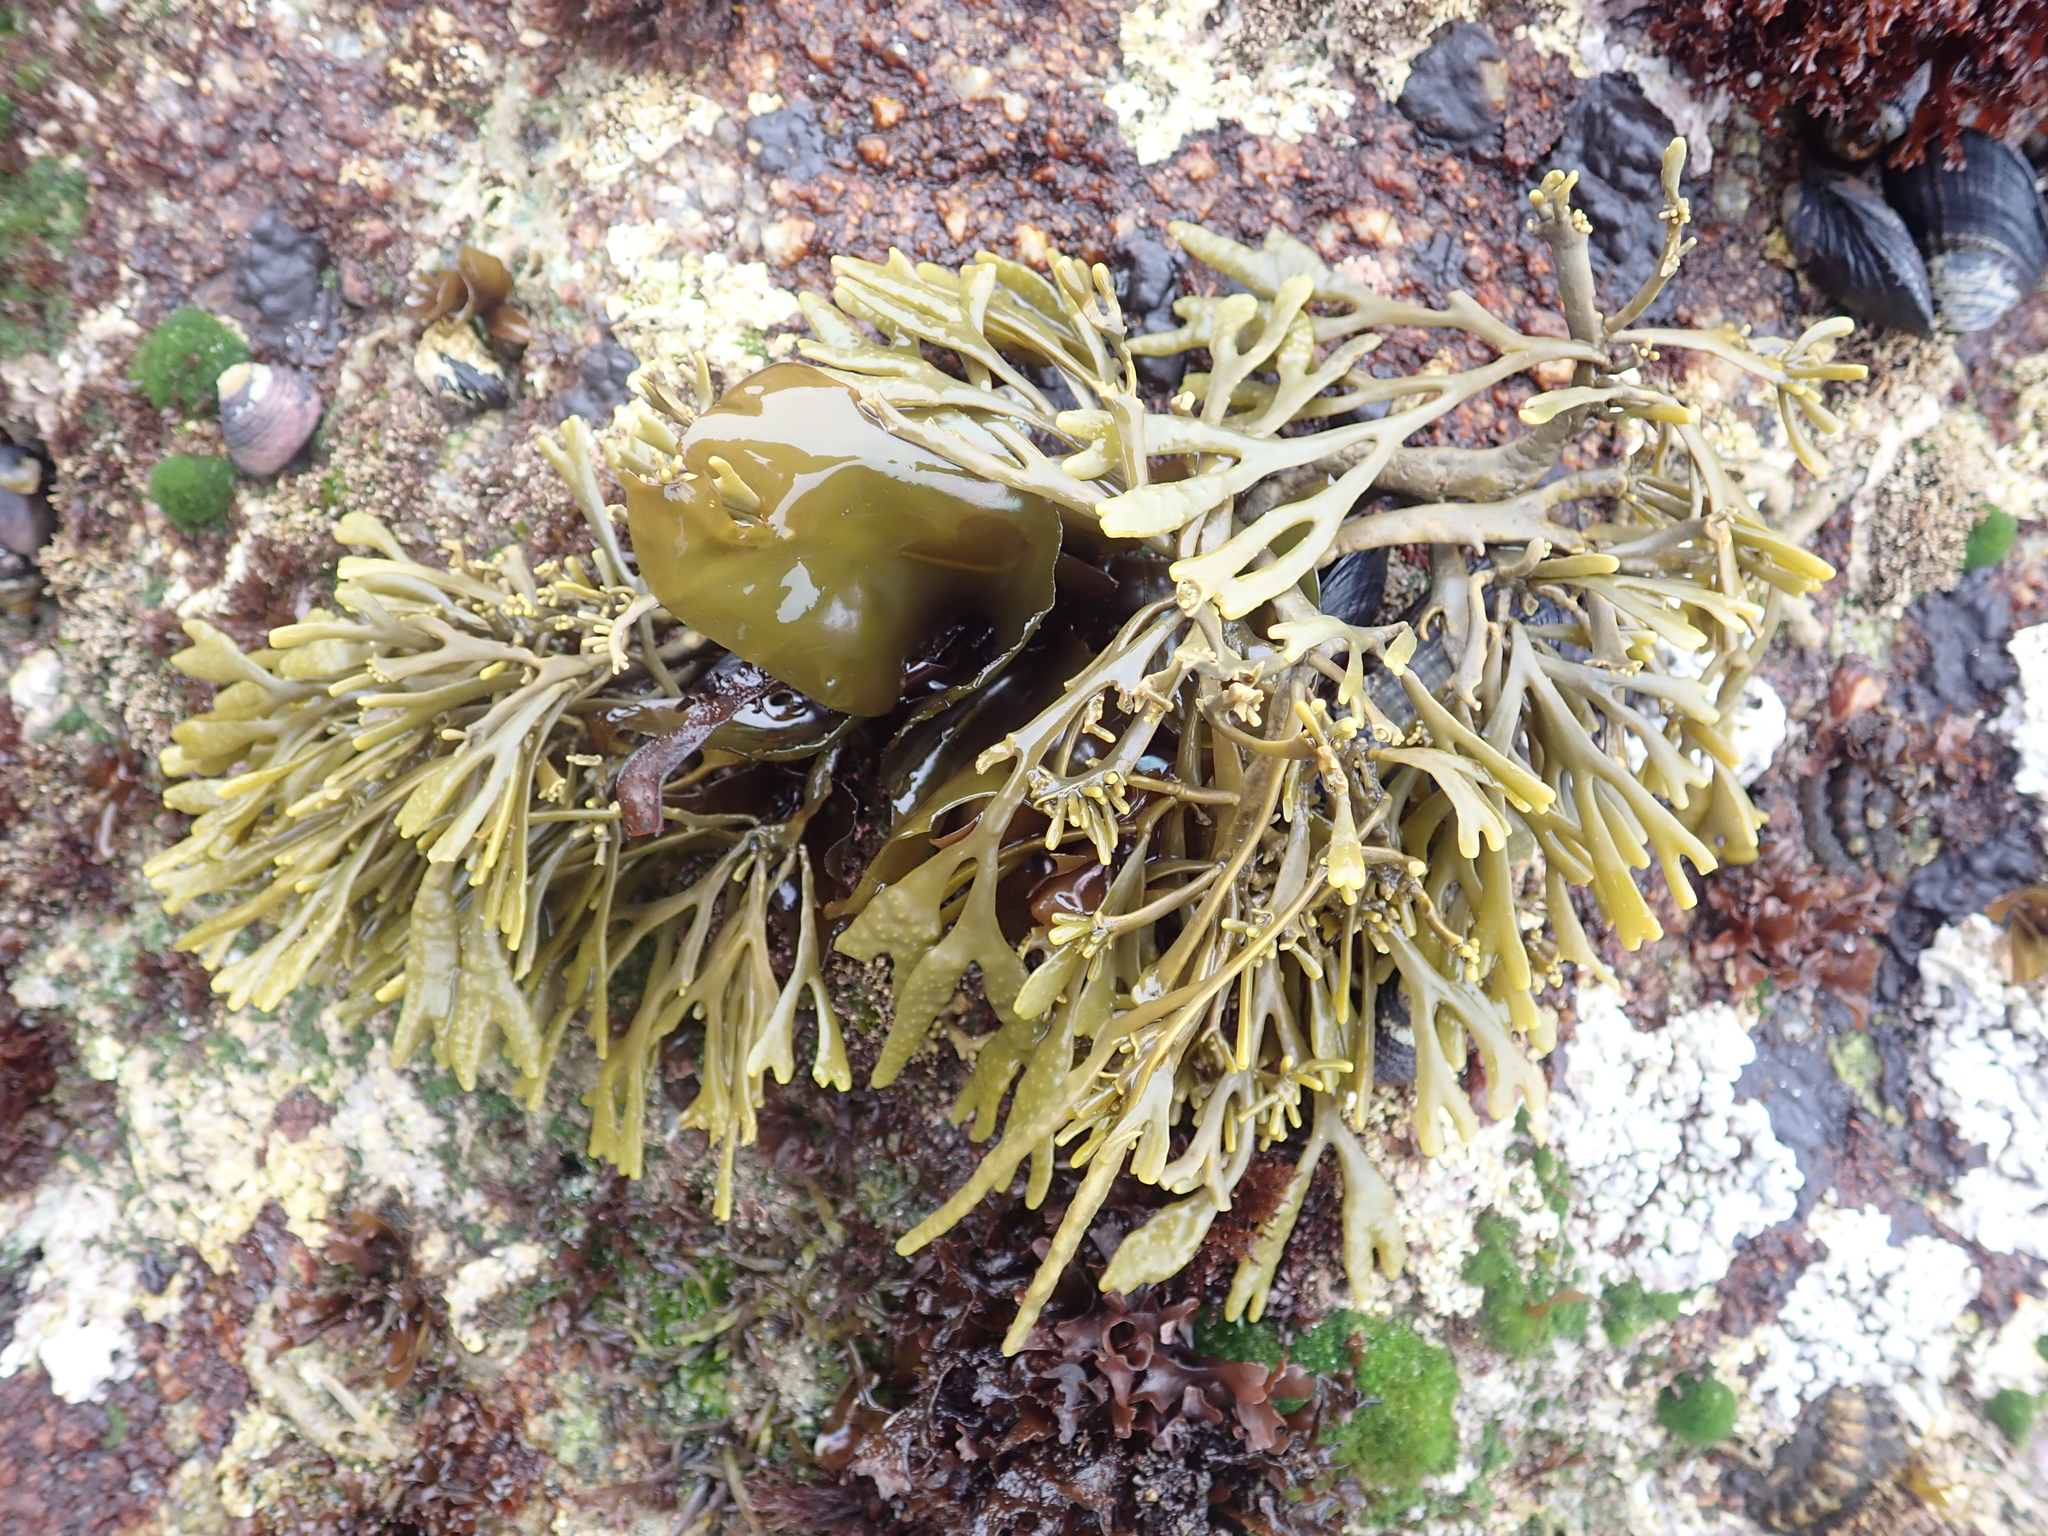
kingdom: Chromista
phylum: Ochrophyta
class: Phaeophyceae
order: Fucales
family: Fucaceae
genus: Silvetia
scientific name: Silvetia
